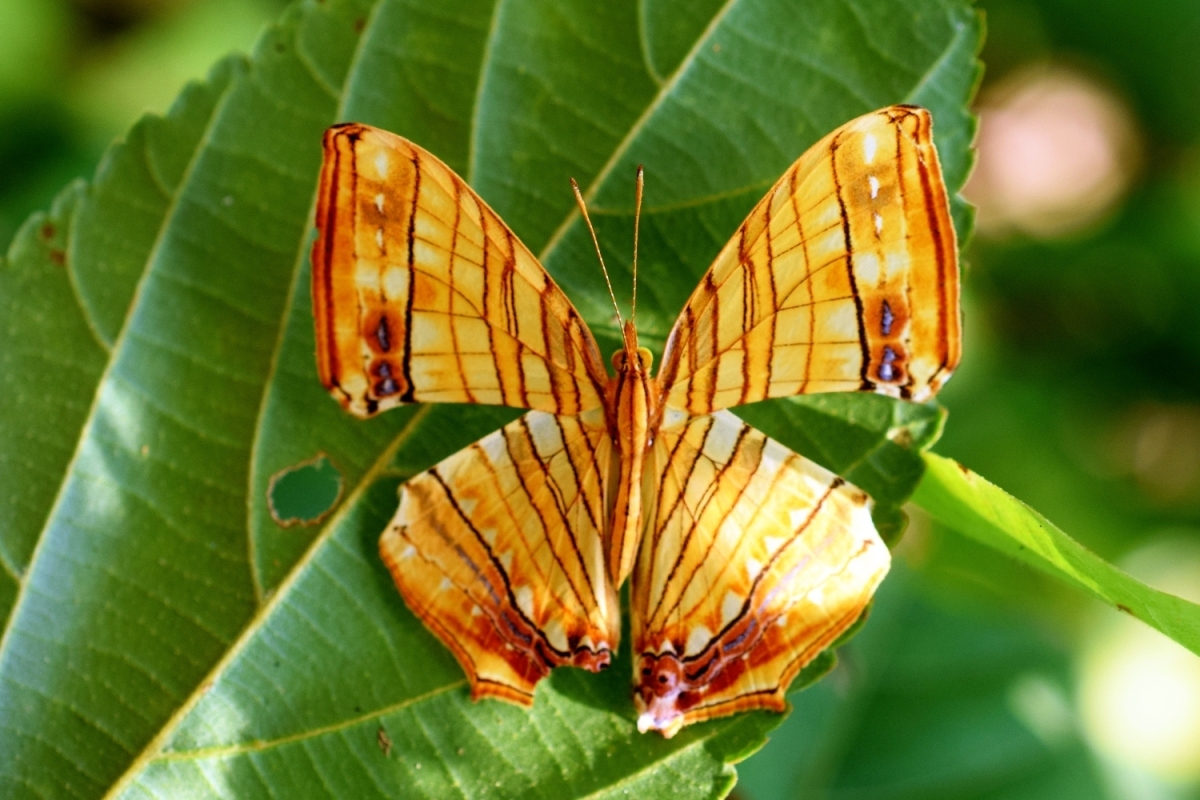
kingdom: Animalia
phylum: Arthropoda
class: Insecta
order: Lepidoptera
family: Nymphalidae
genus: Chersonesia
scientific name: Chersonesia risa
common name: Common maplet
